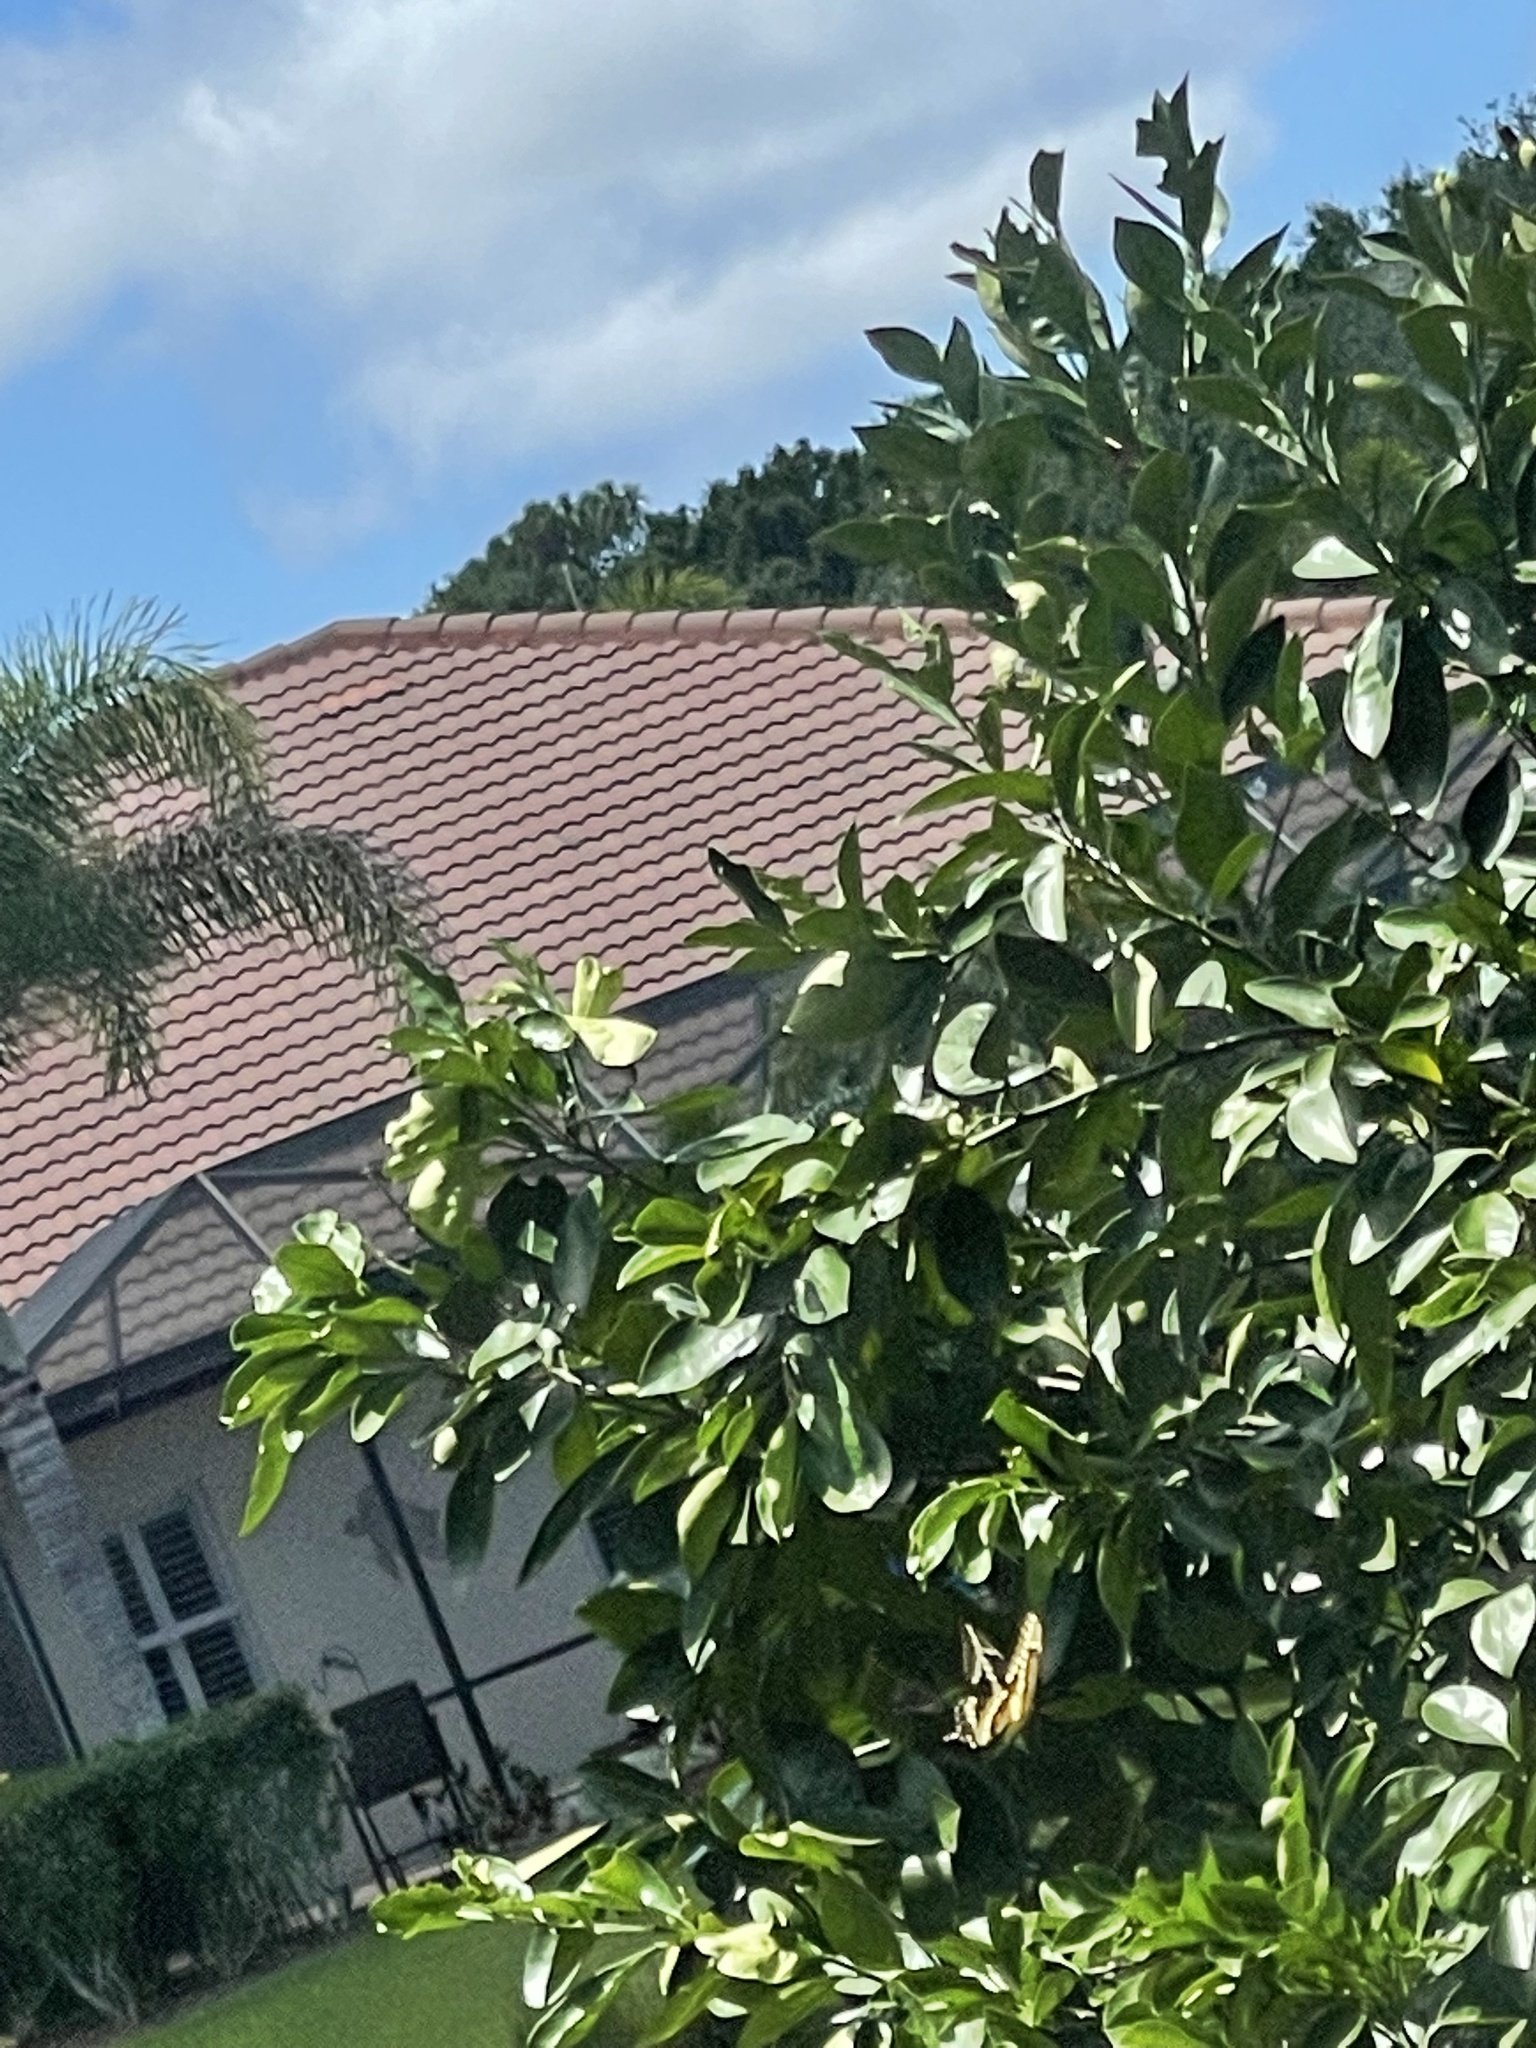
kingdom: Animalia
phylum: Arthropoda
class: Insecta
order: Lepidoptera
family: Papilionidae
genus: Papilio
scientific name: Papilio cresphontes
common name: Giant swallowtail
